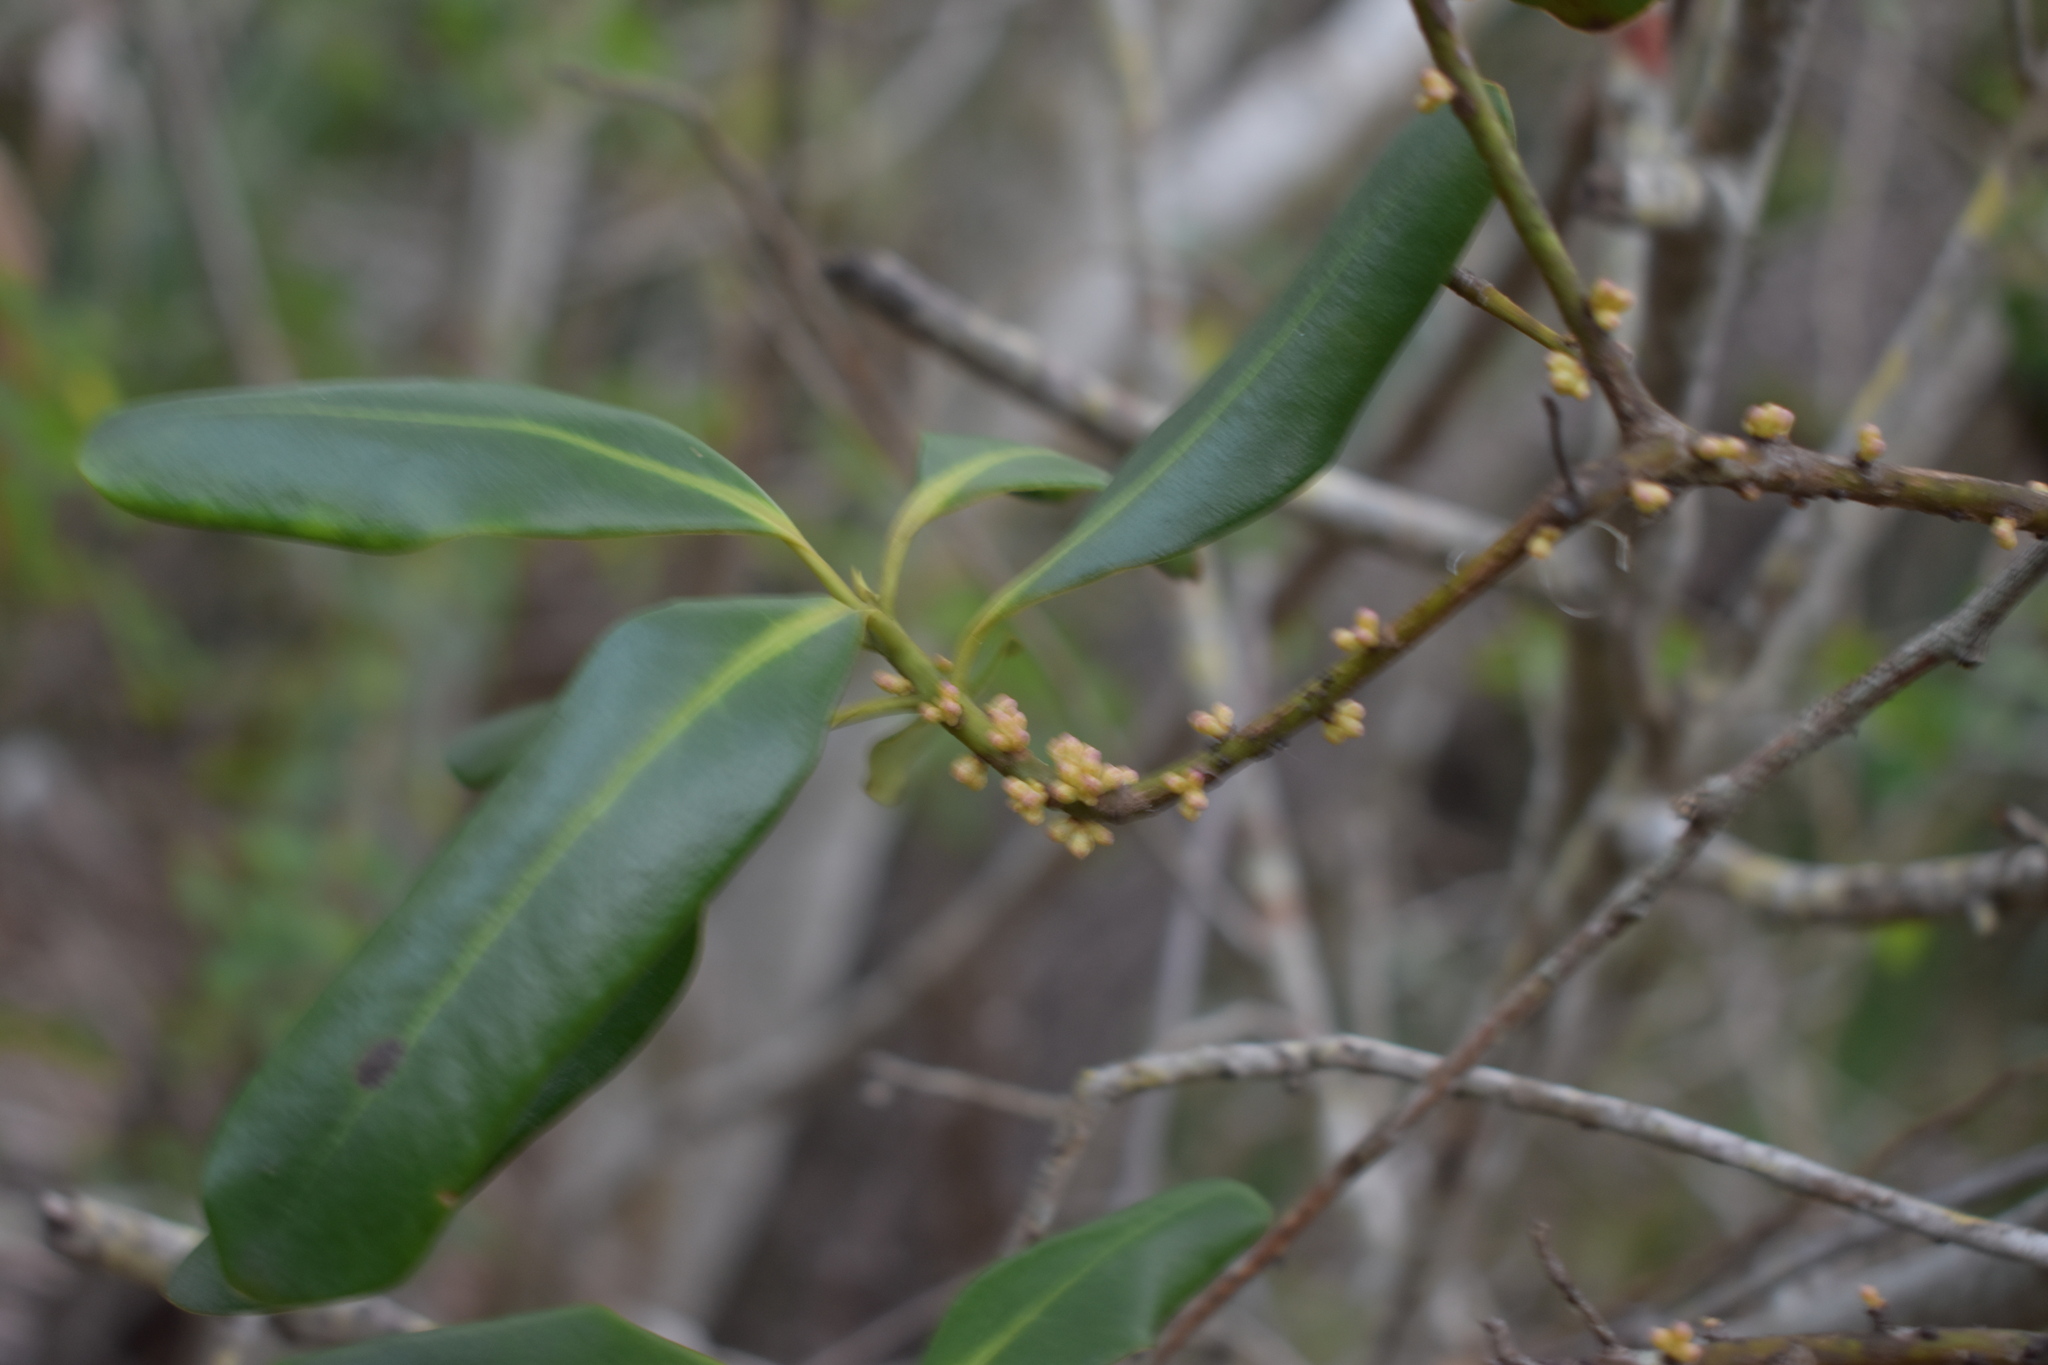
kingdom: Plantae
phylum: Tracheophyta
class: Magnoliopsida
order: Ericales
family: Primulaceae
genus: Myrsine
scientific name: Myrsine floridana
